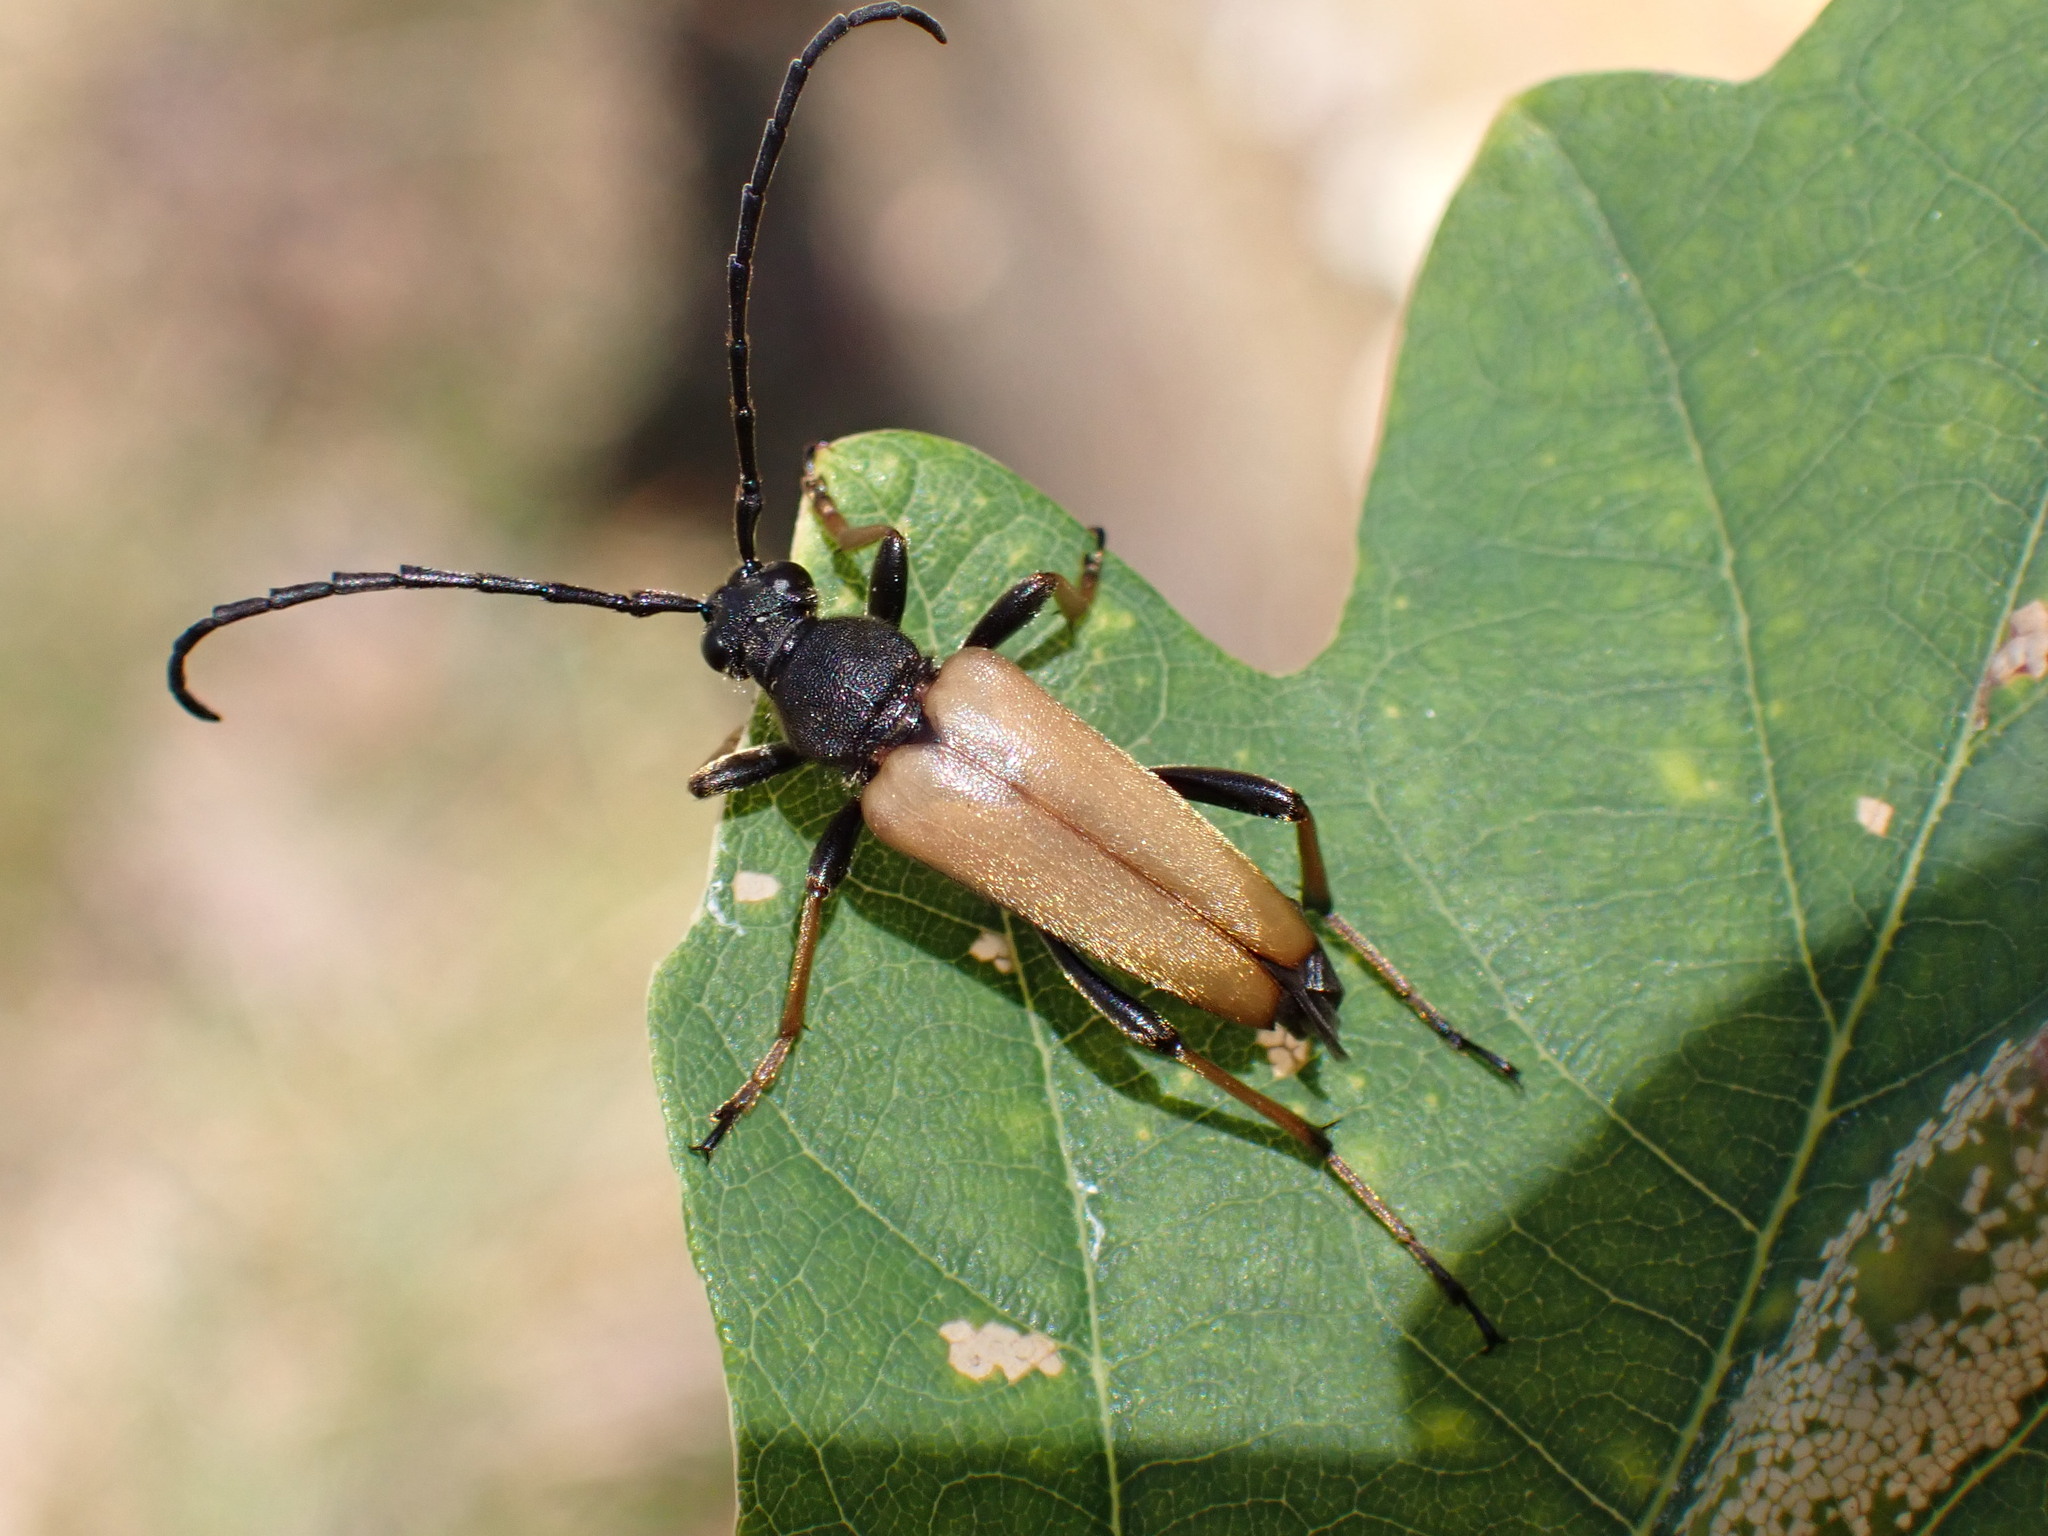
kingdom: Animalia
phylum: Arthropoda
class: Insecta
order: Coleoptera
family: Cerambycidae
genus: Stictoleptura
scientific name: Stictoleptura rubra
